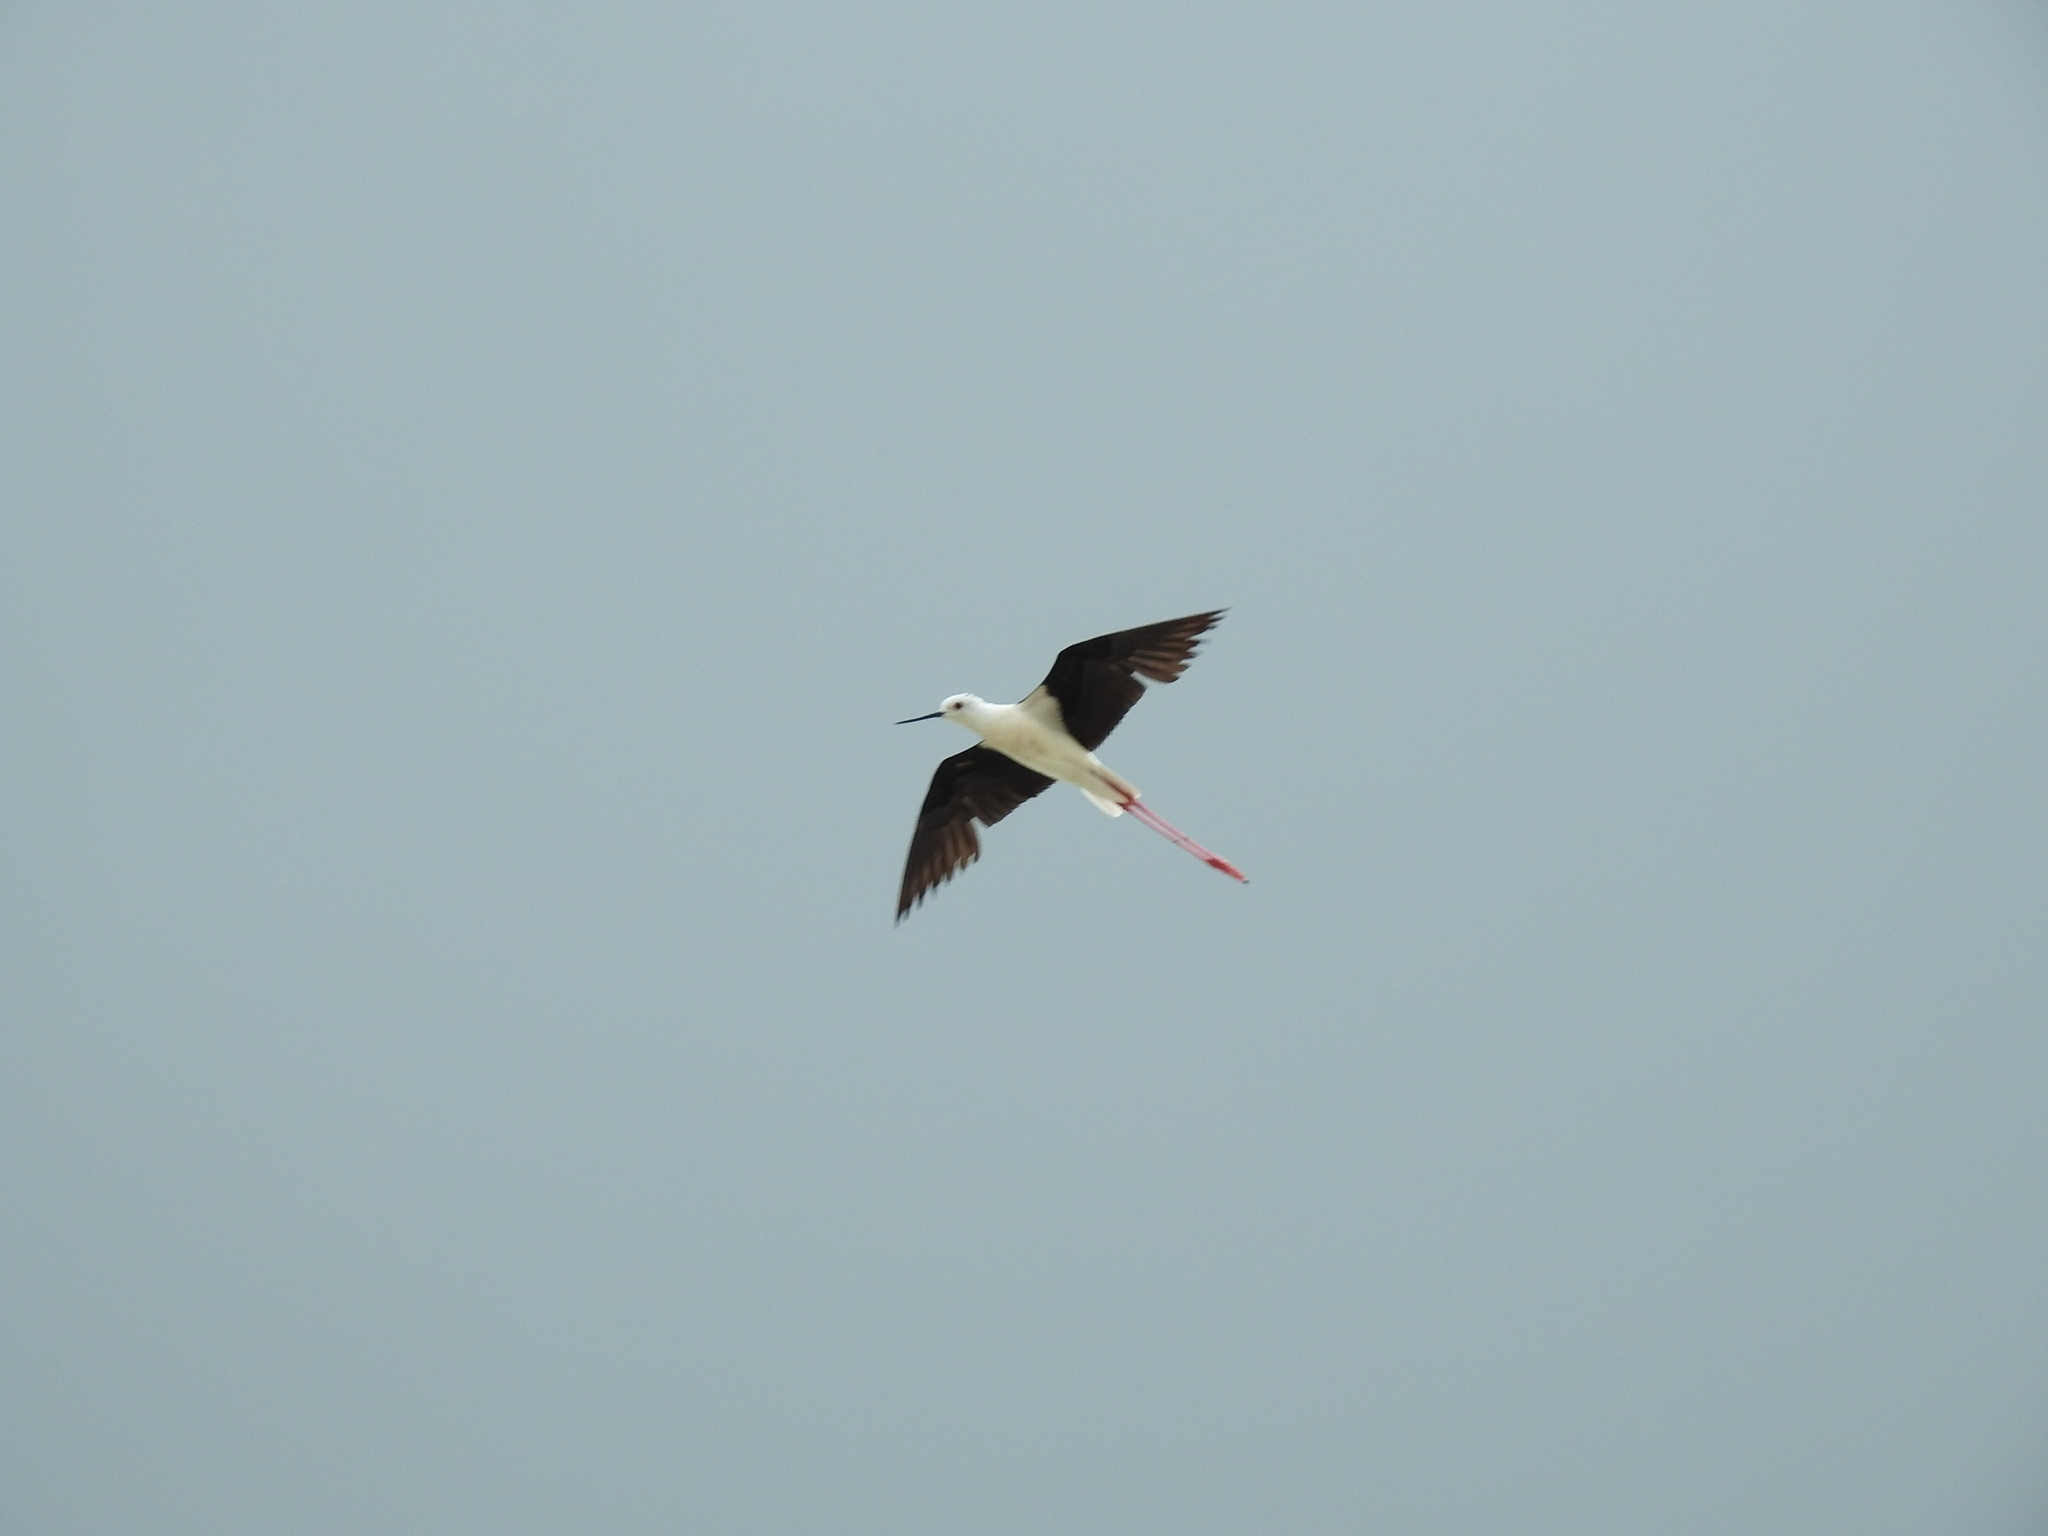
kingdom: Animalia
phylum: Chordata
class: Aves
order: Charadriiformes
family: Recurvirostridae
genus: Himantopus
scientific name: Himantopus himantopus
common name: Black-winged stilt
